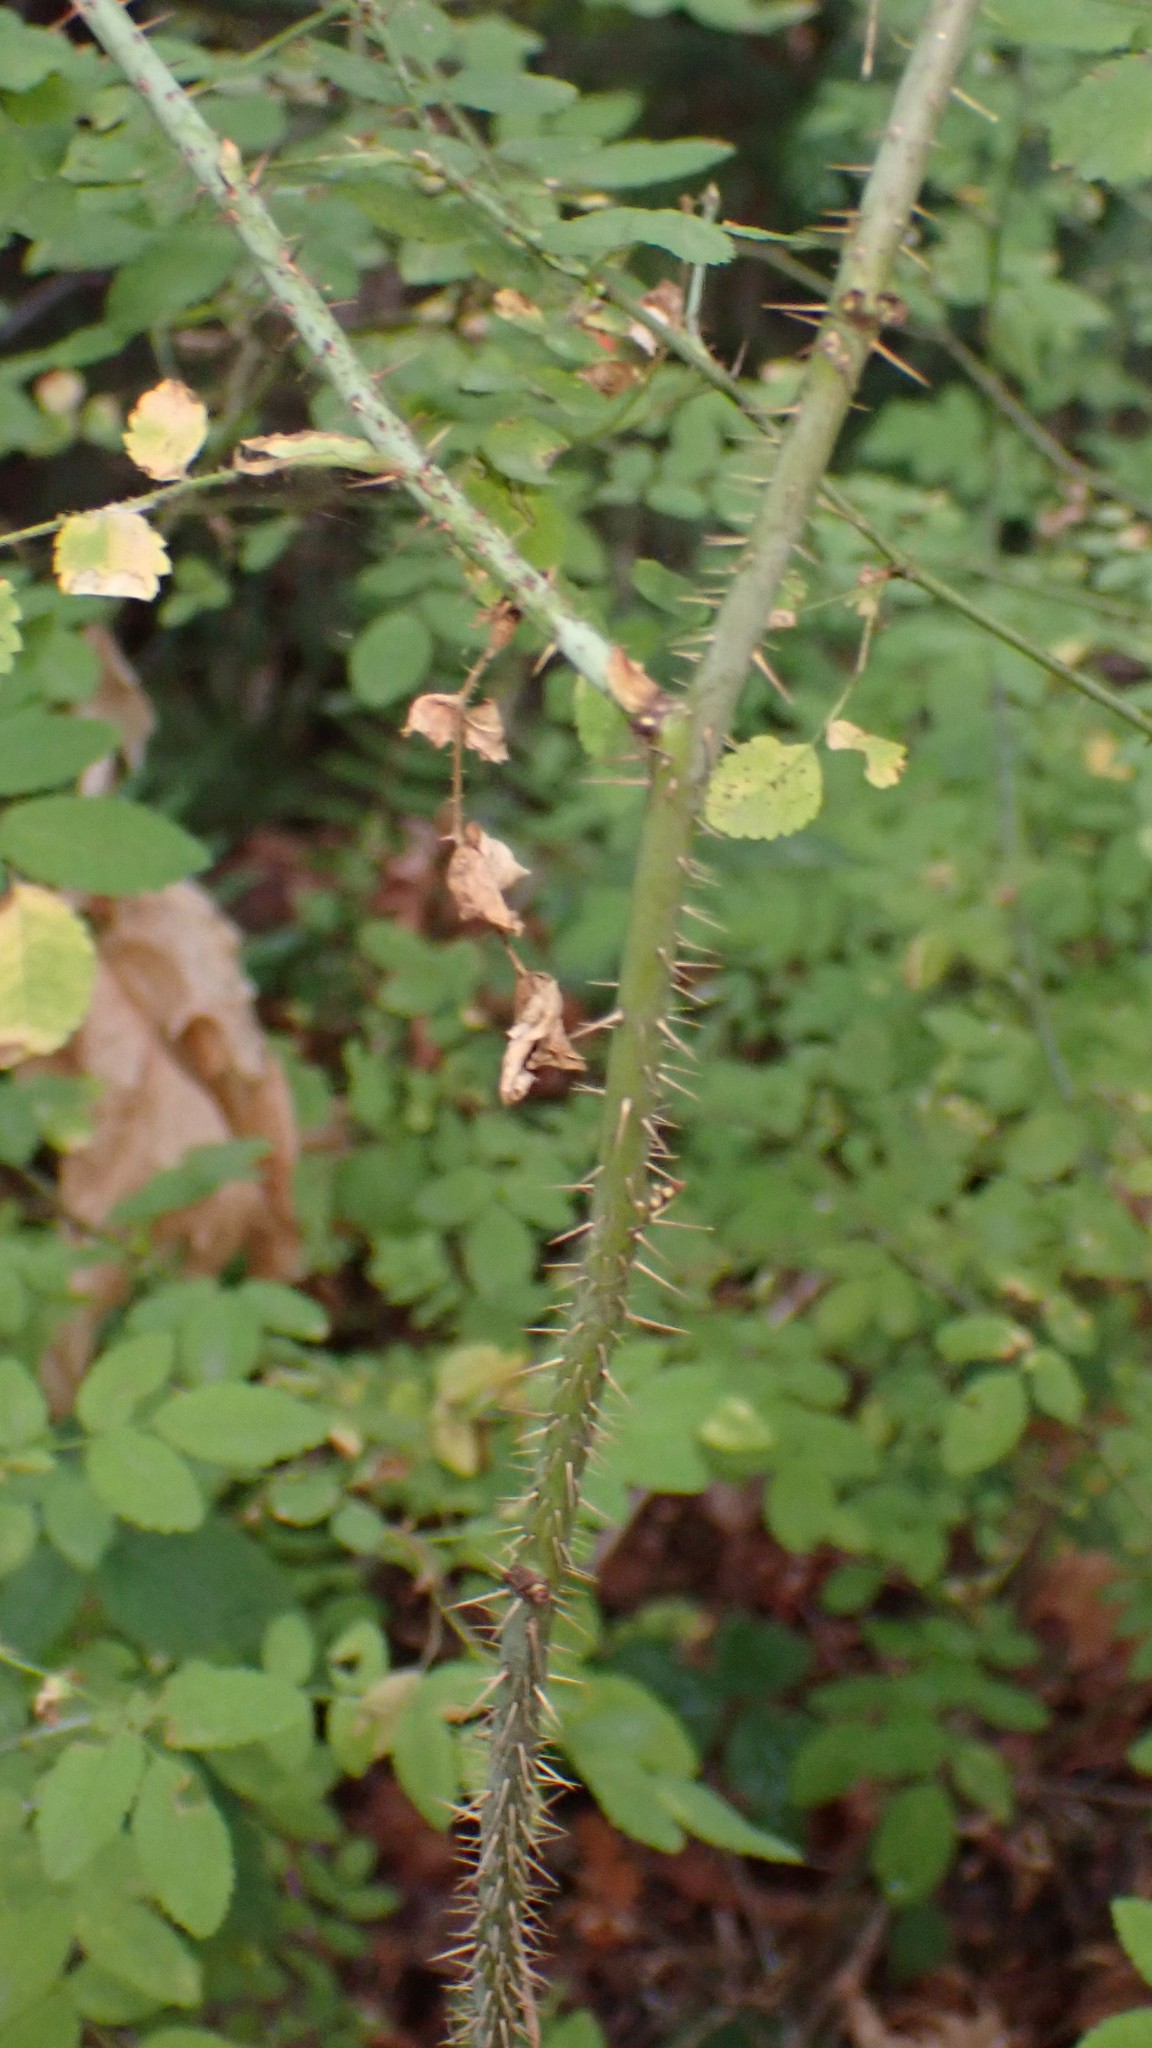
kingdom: Plantae
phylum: Tracheophyta
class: Magnoliopsida
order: Rosales
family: Rosaceae
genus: Rosa
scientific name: Rosa gymnocarpa
